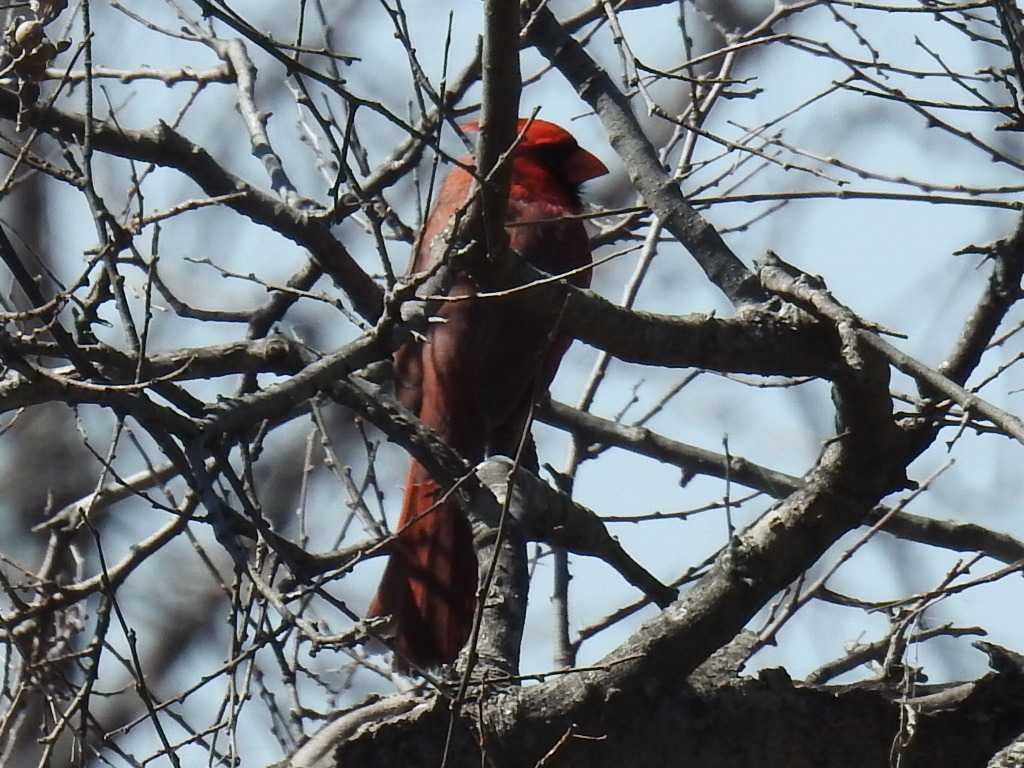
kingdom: Animalia
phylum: Chordata
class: Aves
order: Passeriformes
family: Cardinalidae
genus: Cardinalis
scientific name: Cardinalis cardinalis
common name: Northern cardinal
